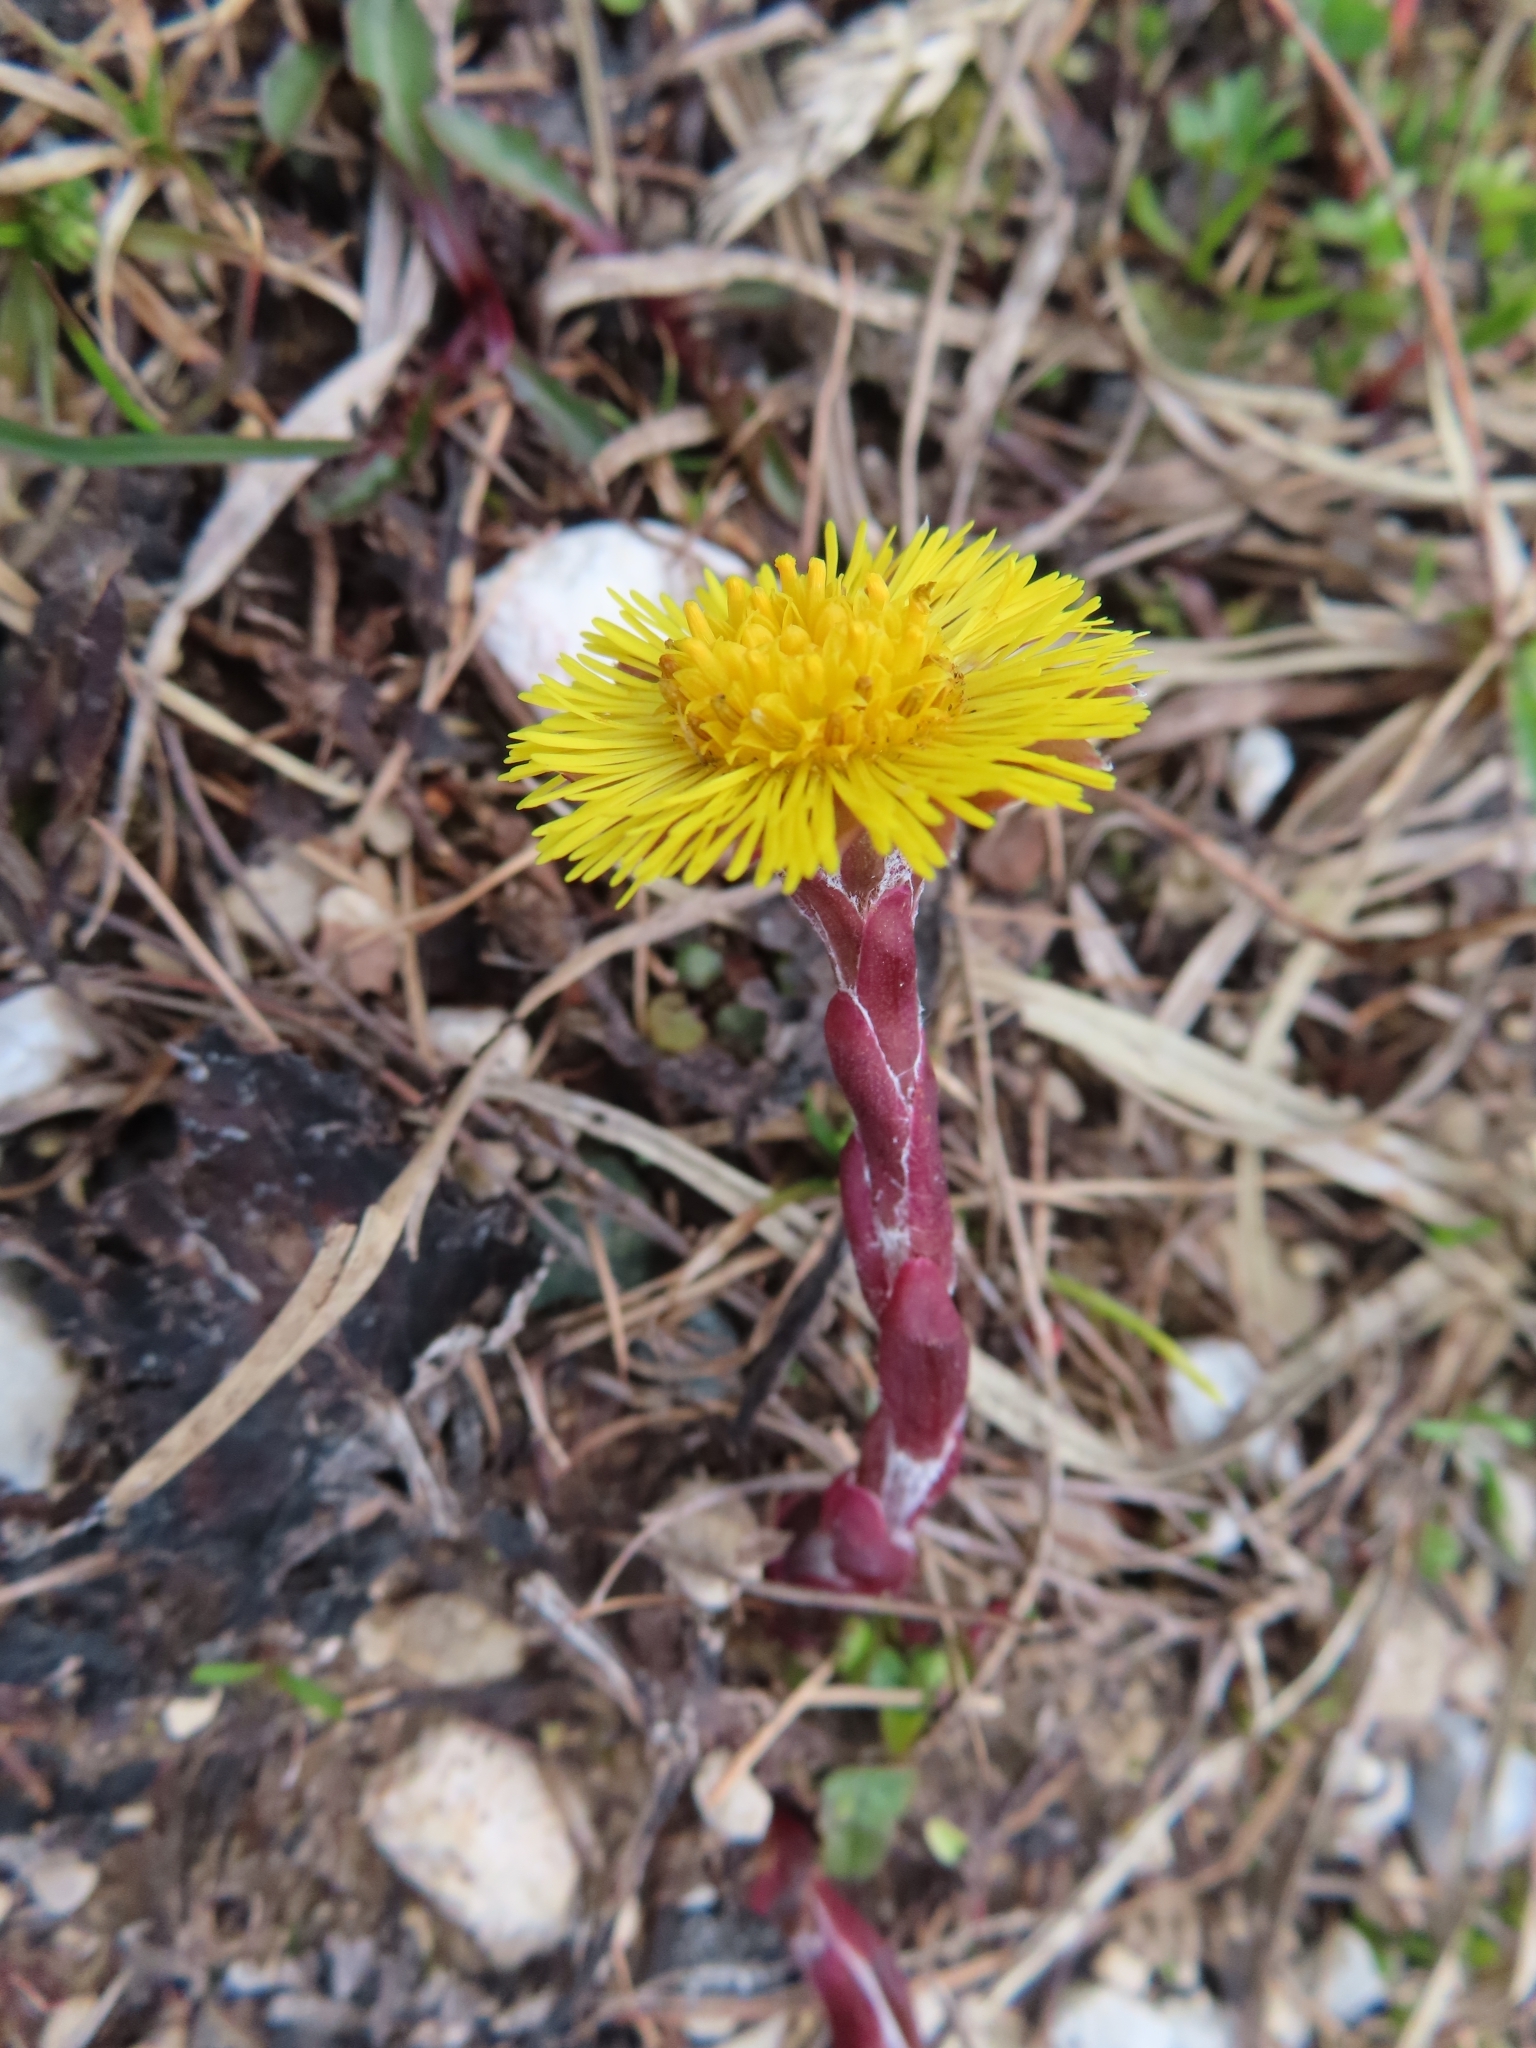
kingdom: Plantae
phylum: Tracheophyta
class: Magnoliopsida
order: Asterales
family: Asteraceae
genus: Tussilago
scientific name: Tussilago farfara
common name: Coltsfoot
